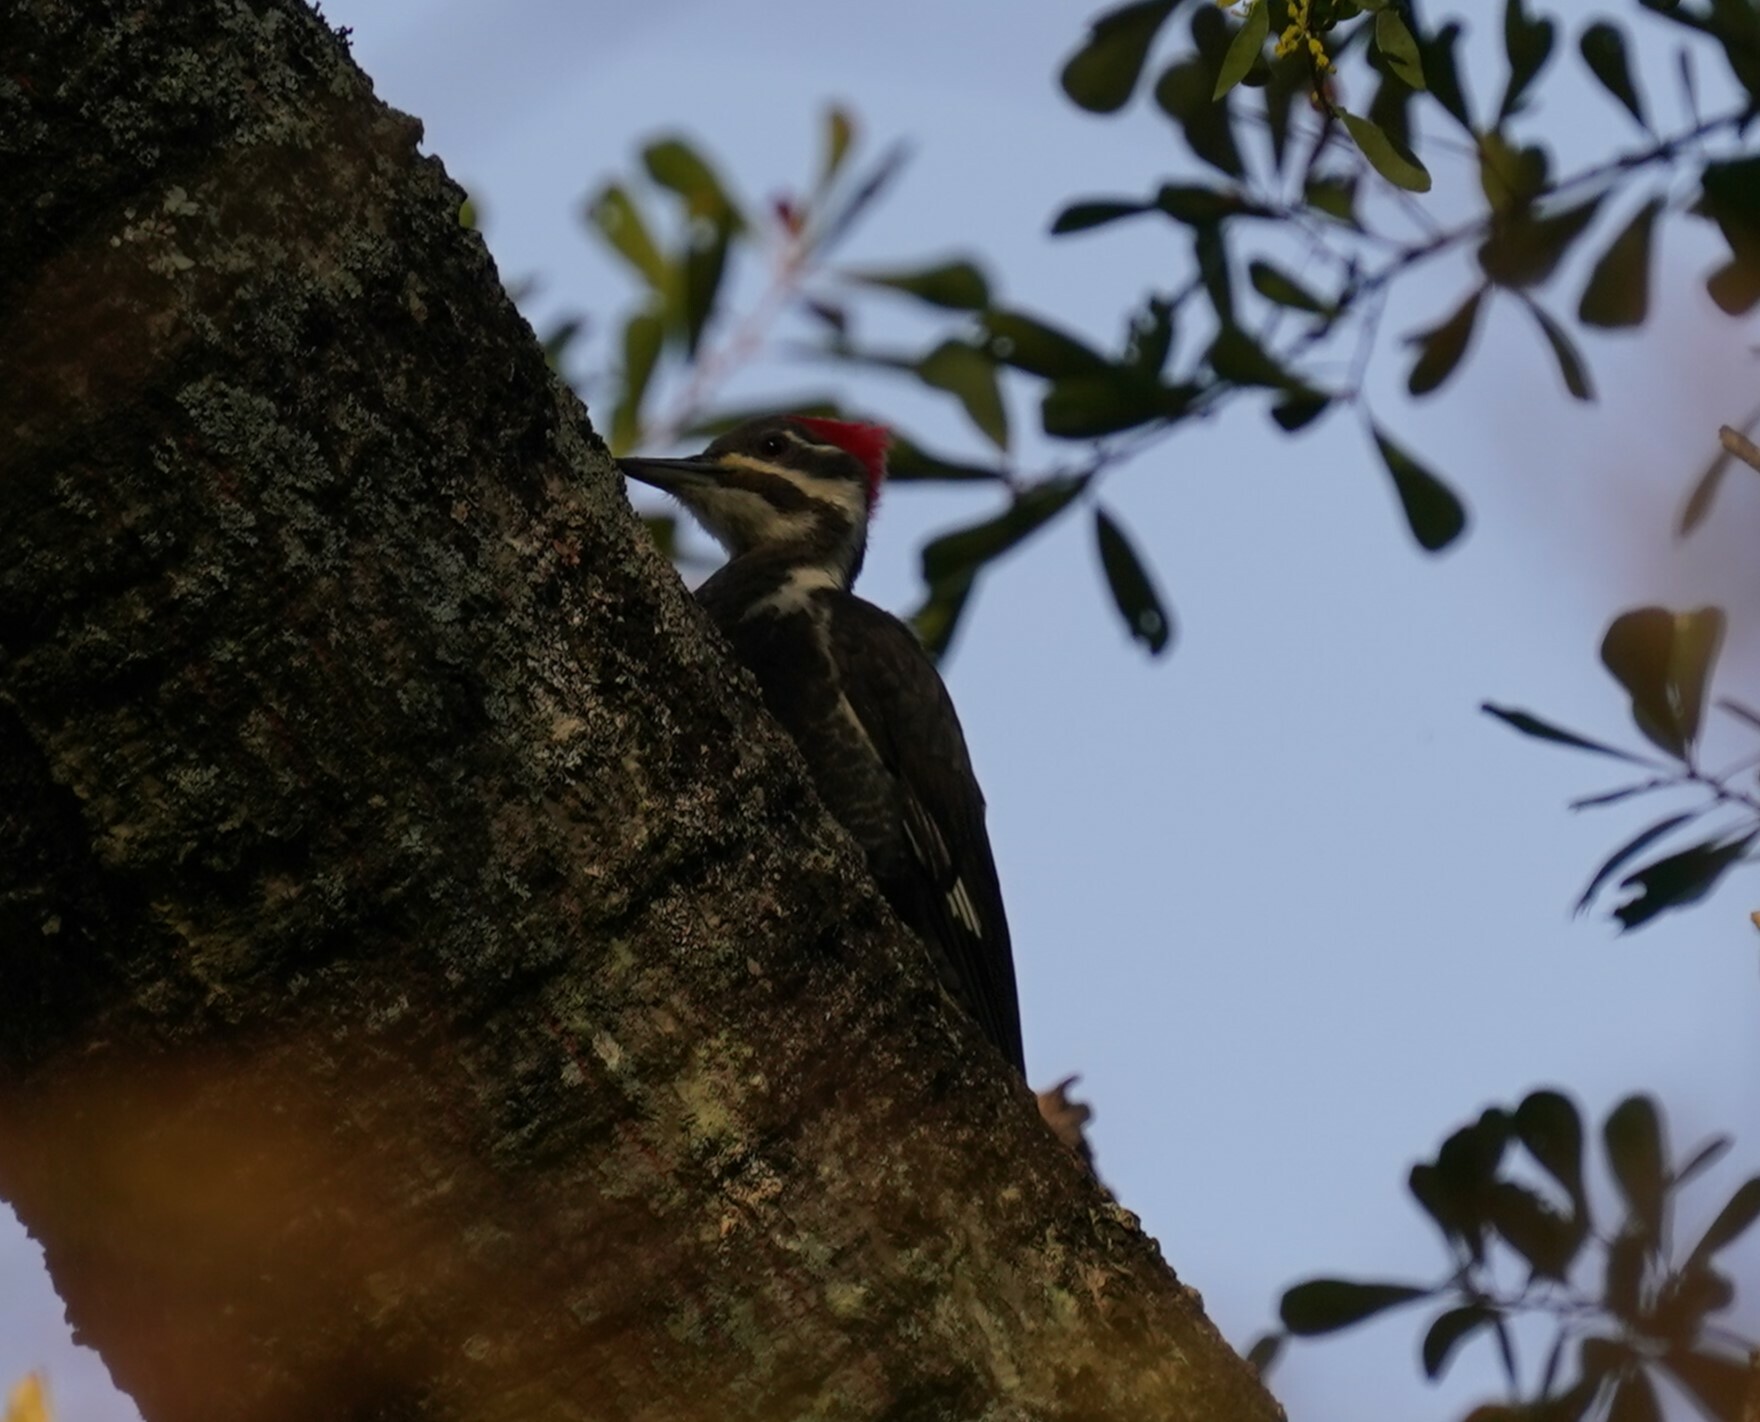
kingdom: Animalia
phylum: Chordata
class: Aves
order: Piciformes
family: Picidae
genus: Dryocopus
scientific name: Dryocopus pileatus
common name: Pileated woodpecker
